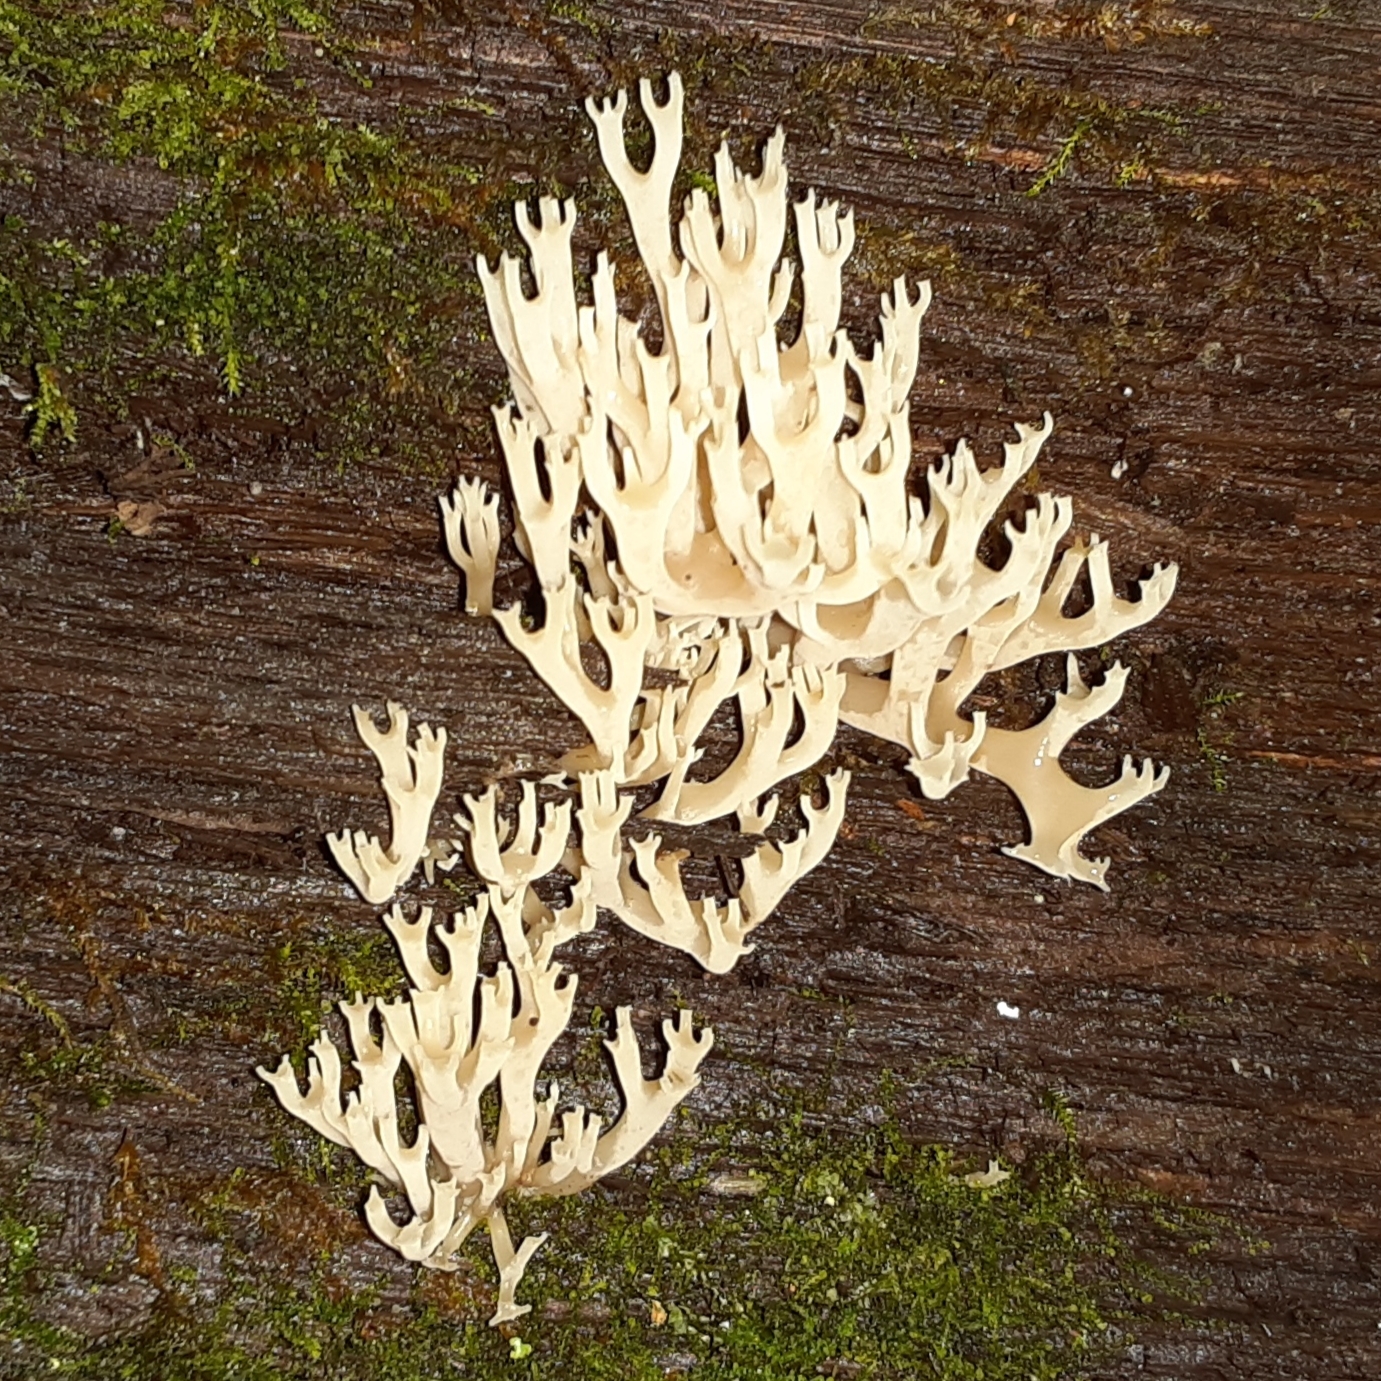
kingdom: Fungi
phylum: Basidiomycota
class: Agaricomycetes
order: Russulales
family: Auriscalpiaceae
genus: Artomyces
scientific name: Artomyces pyxidatus
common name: Crown-tipped coral fungus
